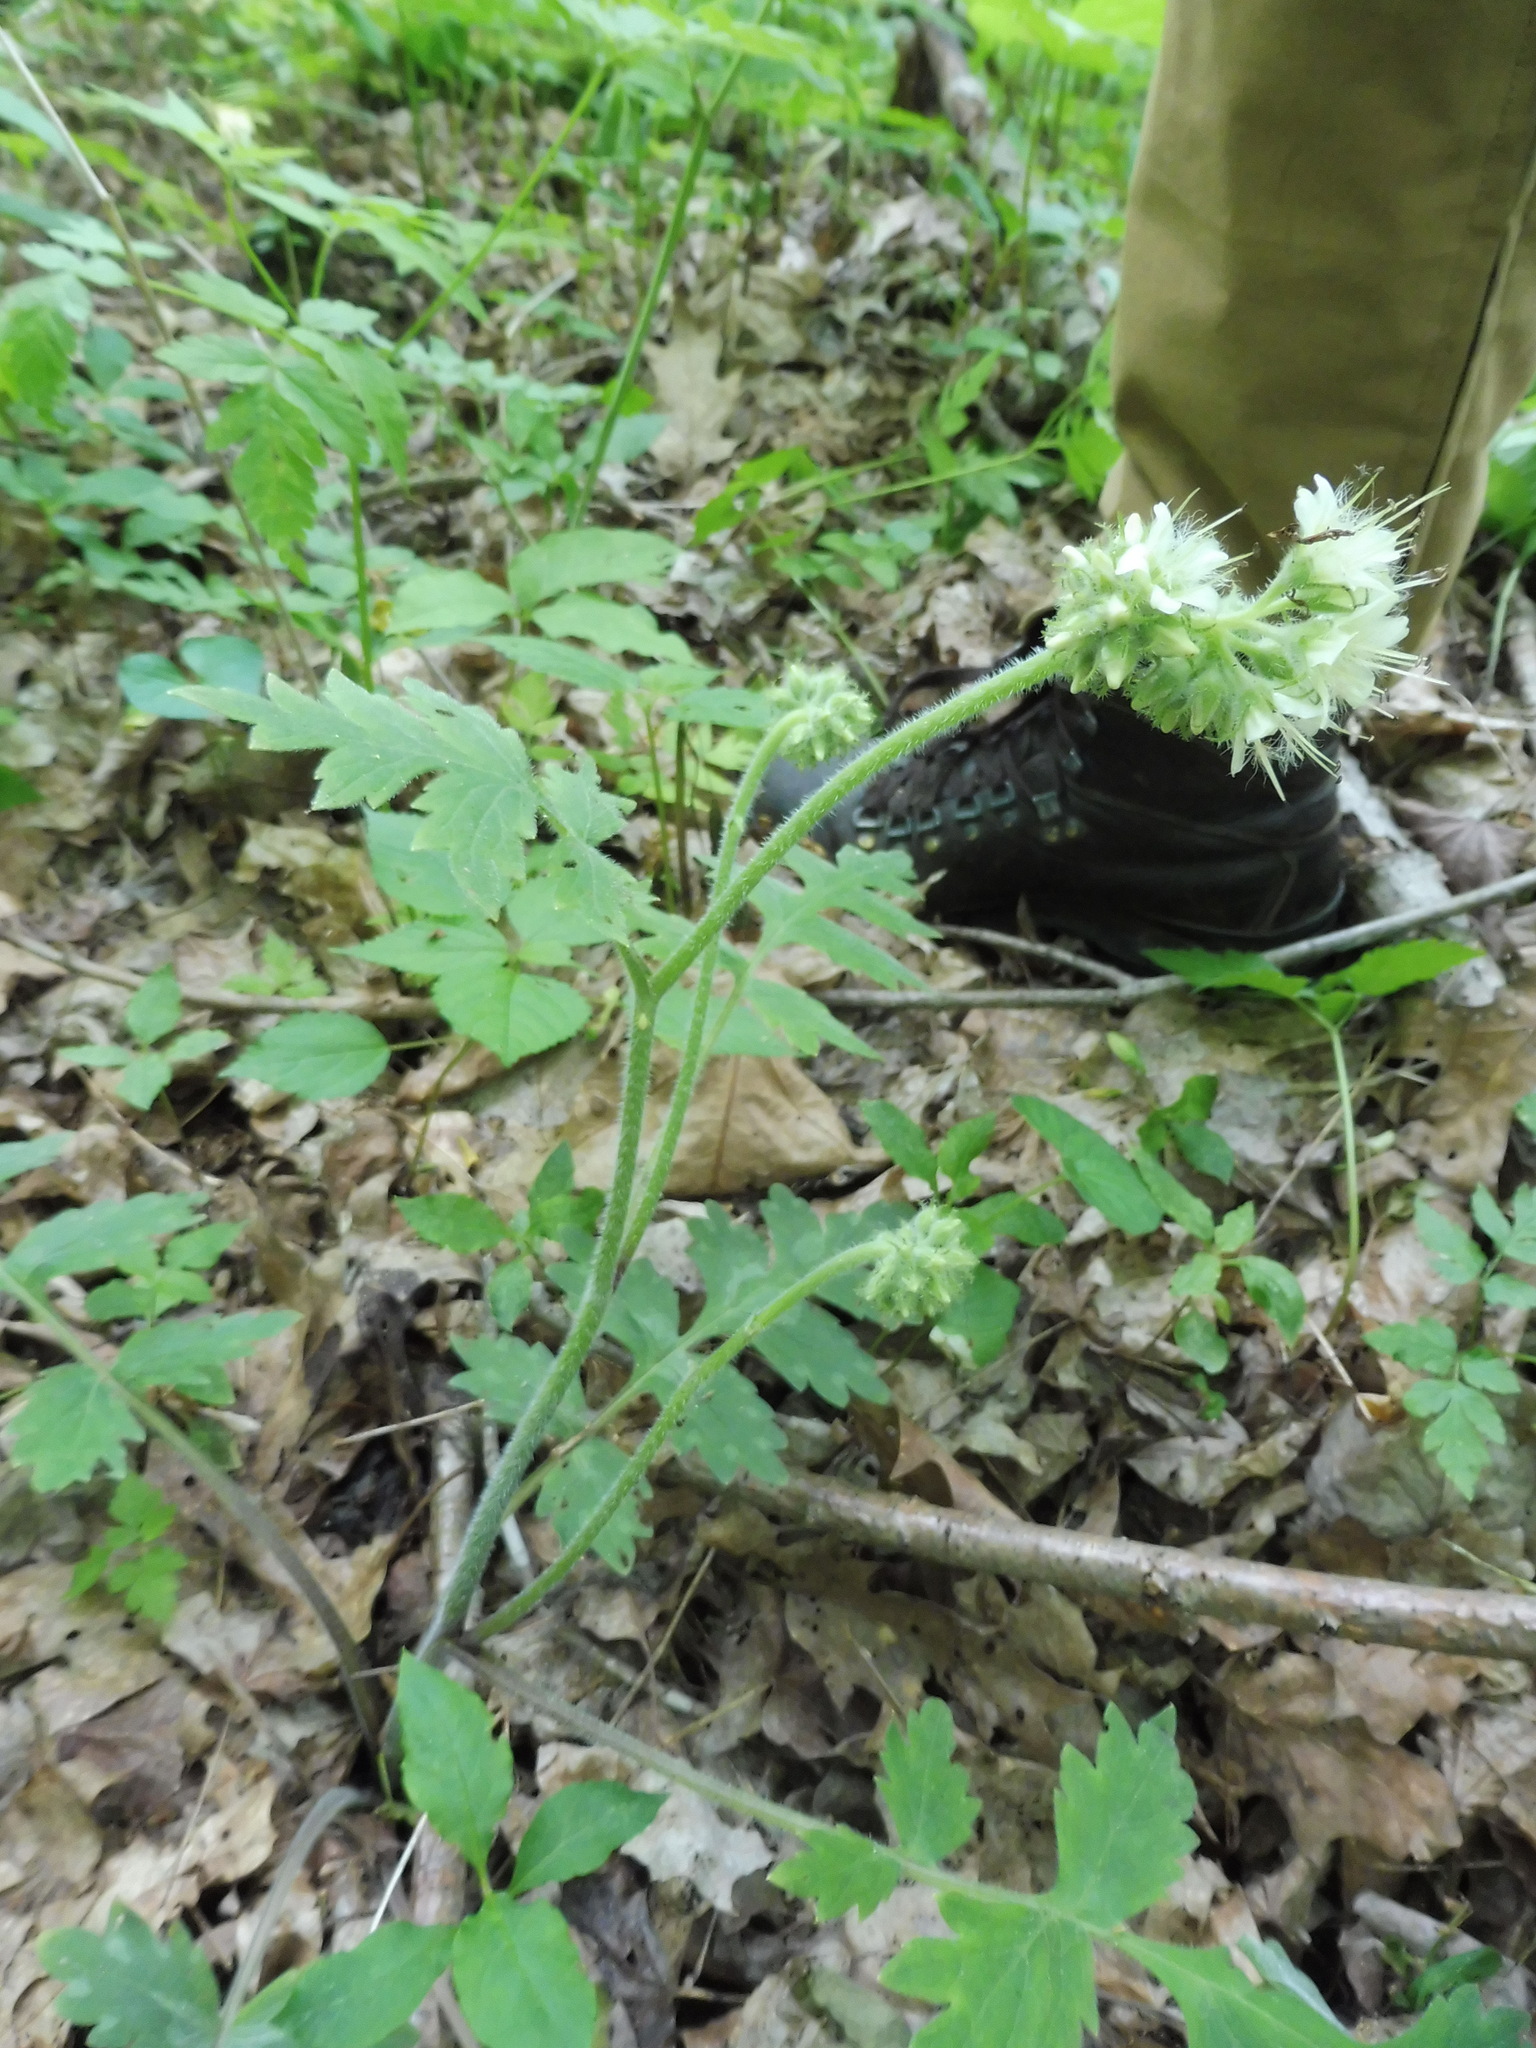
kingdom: Plantae
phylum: Tracheophyta
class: Magnoliopsida
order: Boraginales
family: Hydrophyllaceae
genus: Hydrophyllum
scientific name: Hydrophyllum macrophyllum
